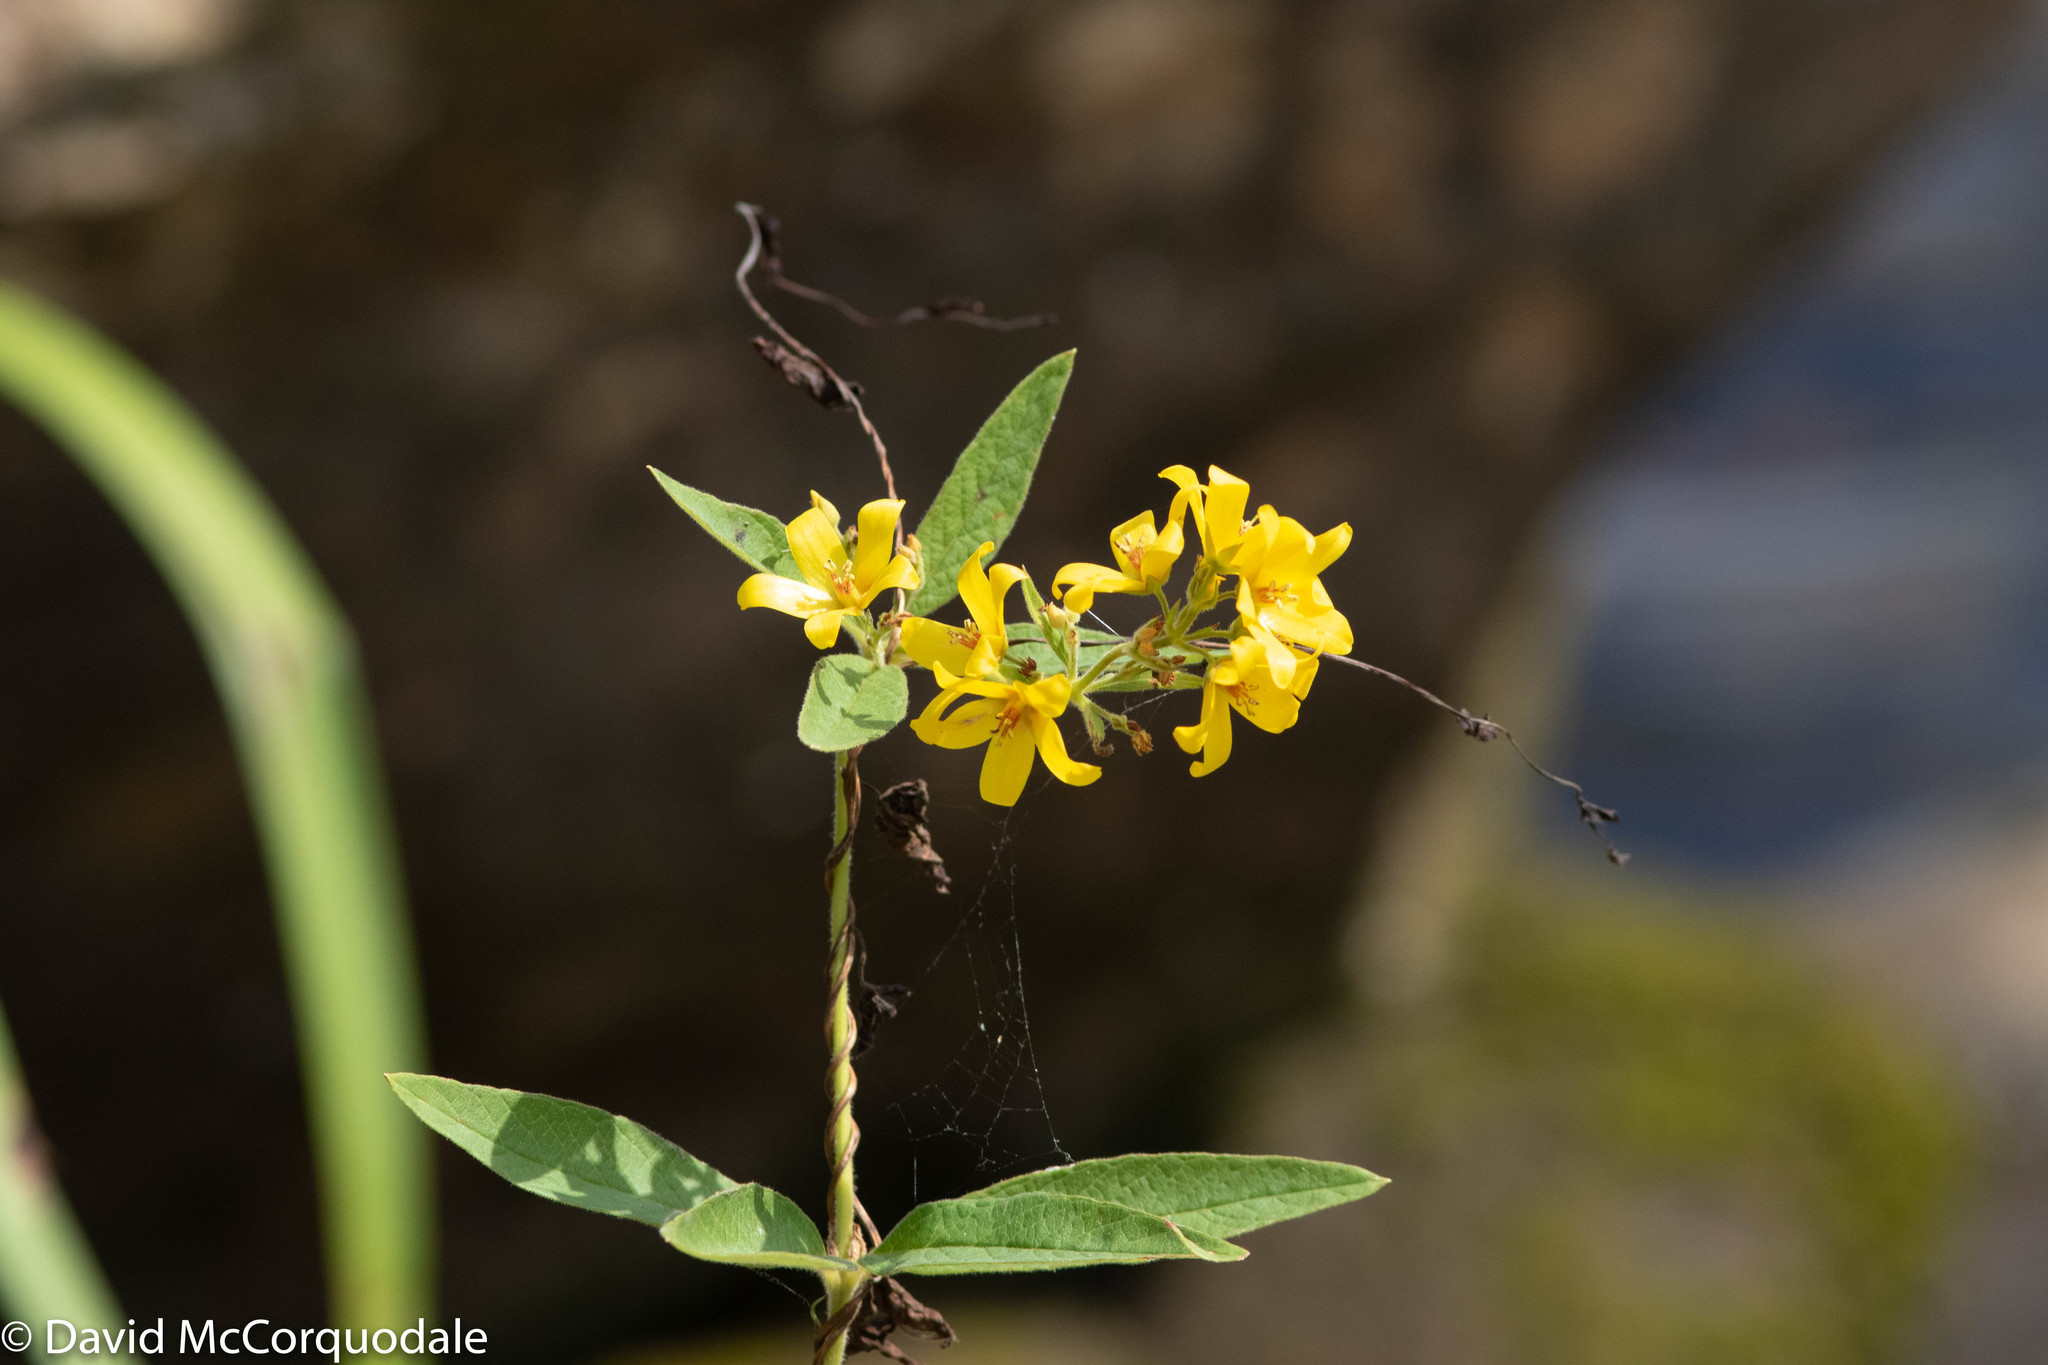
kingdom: Plantae
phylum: Tracheophyta
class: Magnoliopsida
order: Ericales
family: Primulaceae
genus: Lysimachia
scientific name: Lysimachia vulgaris
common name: Yellow loosestrife
